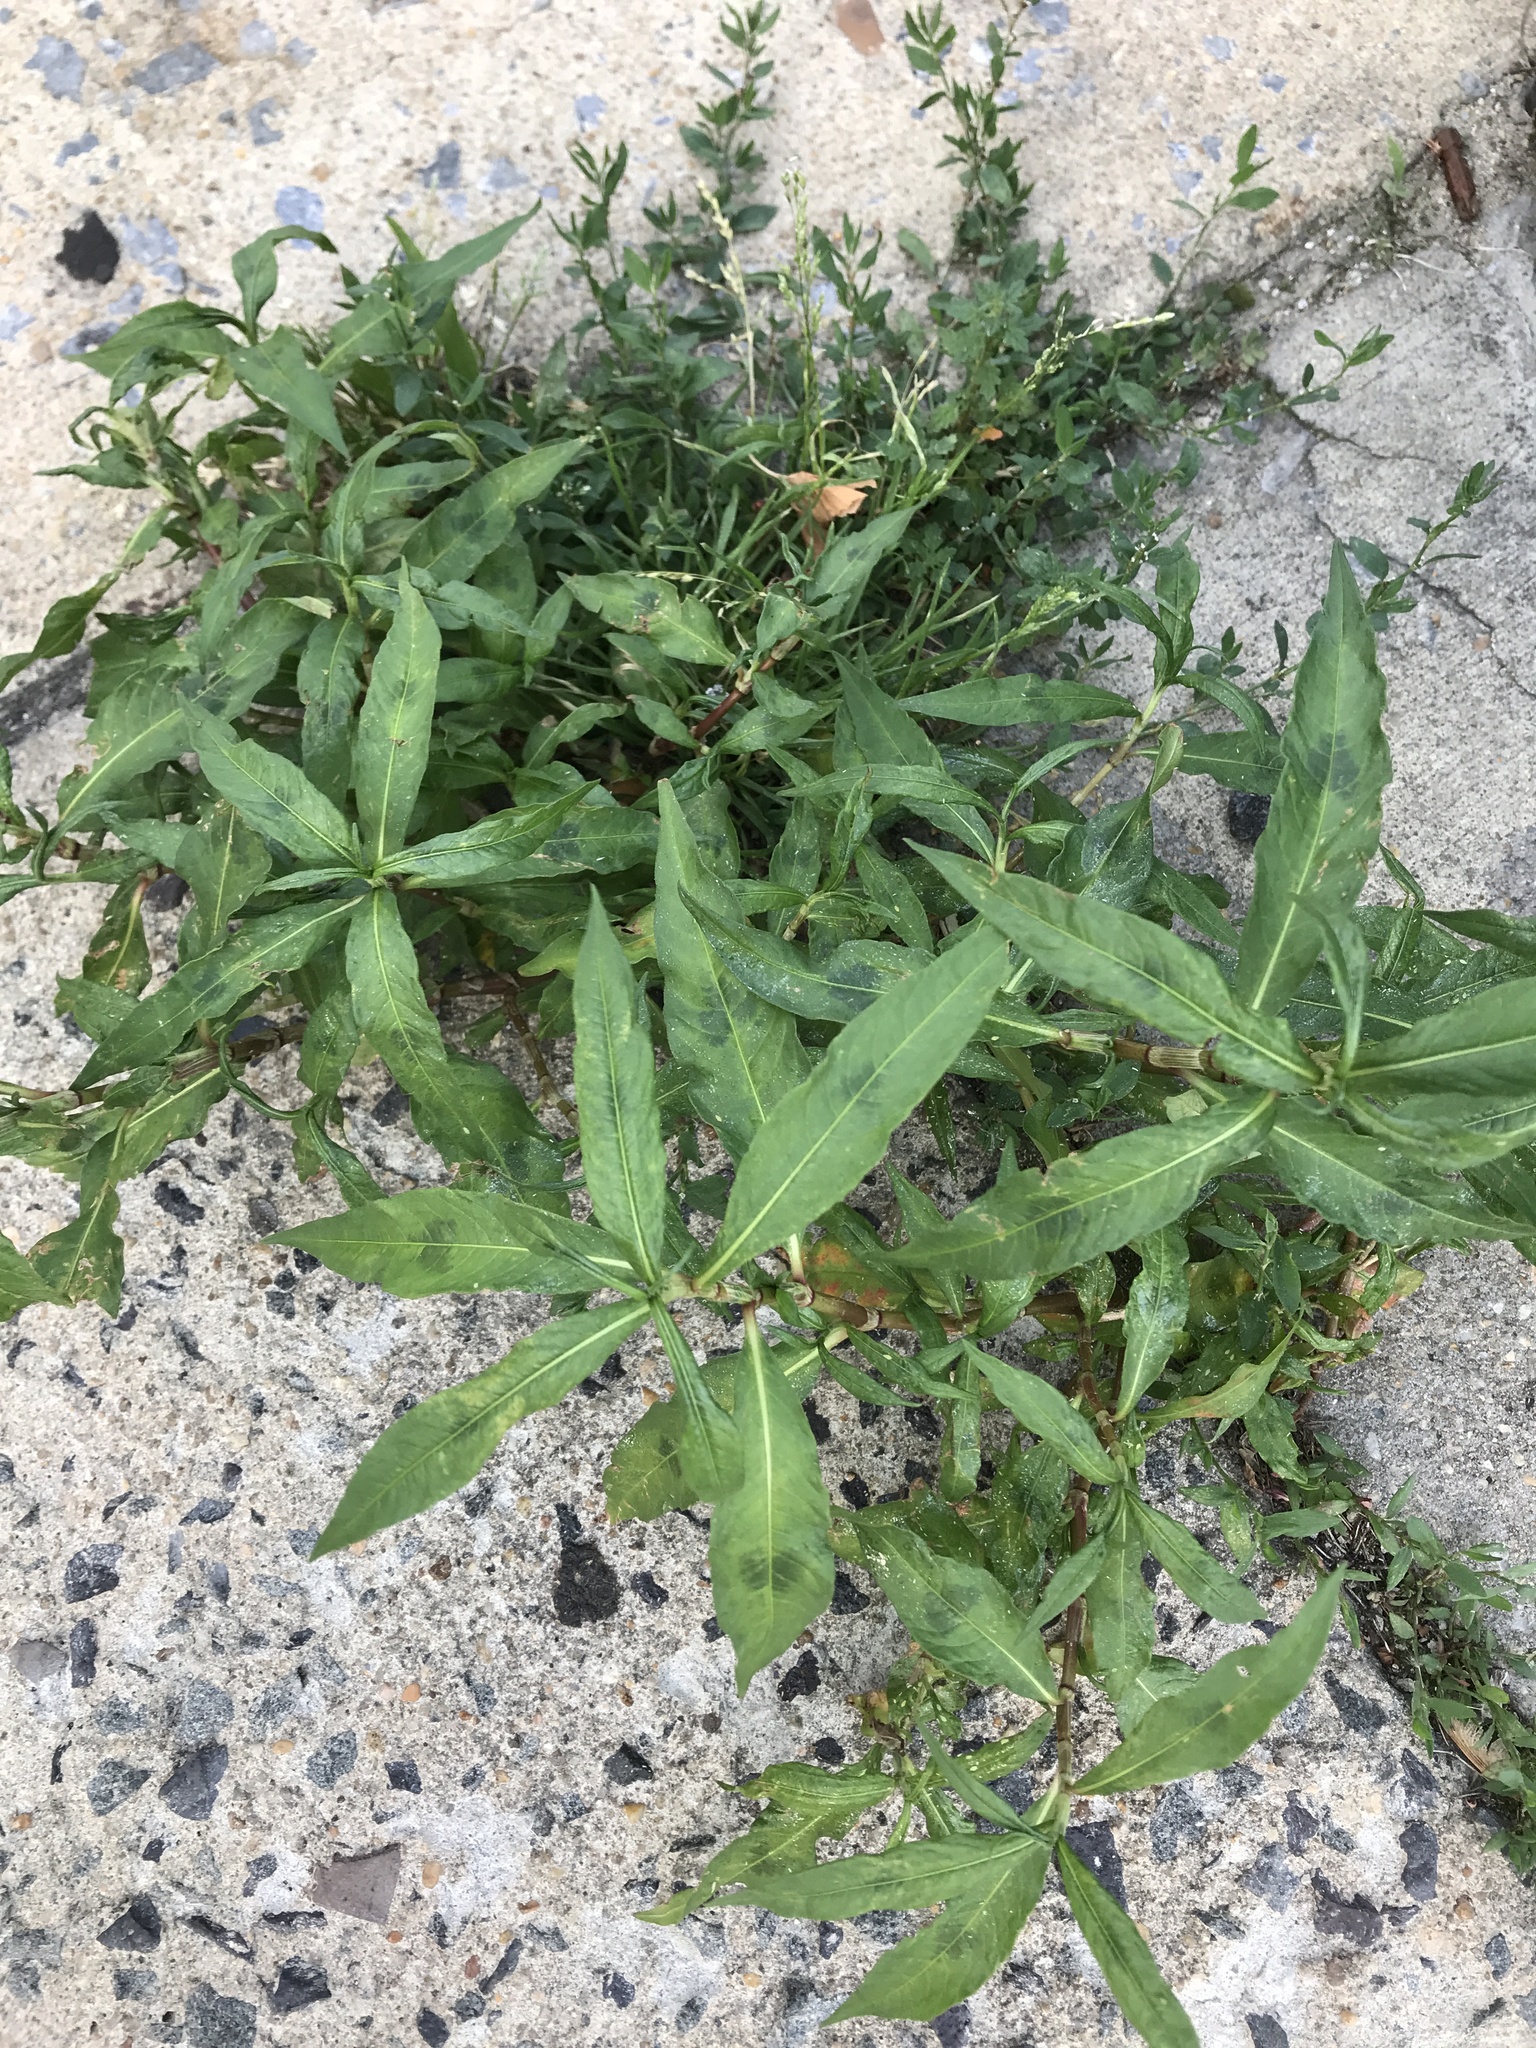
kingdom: Plantae
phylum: Tracheophyta
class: Magnoliopsida
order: Caryophyllales
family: Polygonaceae
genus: Persicaria
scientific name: Persicaria maculosa
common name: Redshank
